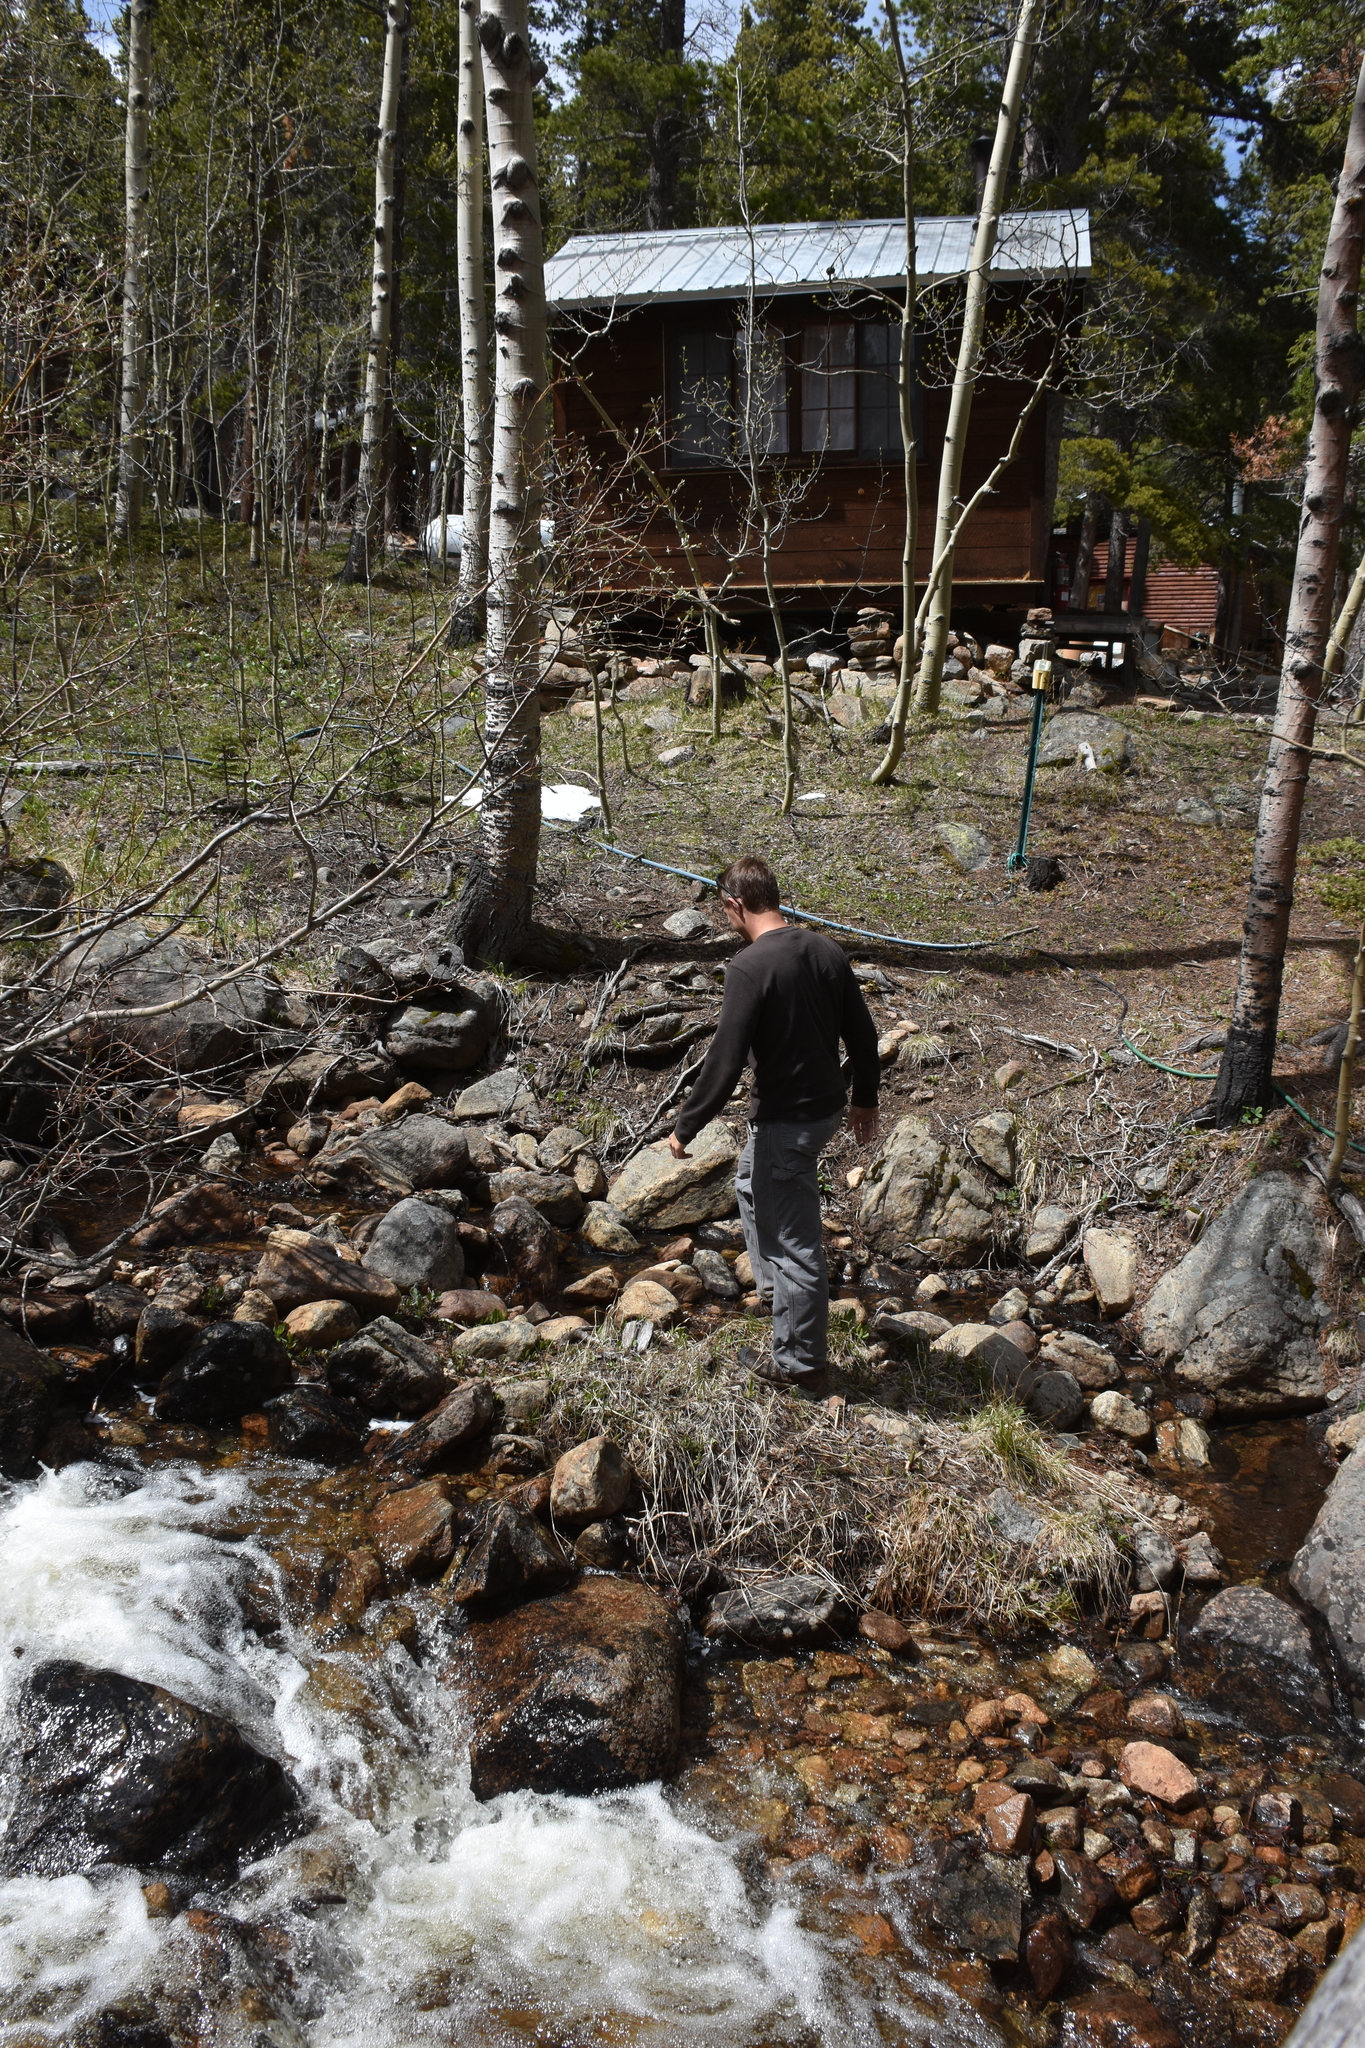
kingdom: Plantae
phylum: Tracheophyta
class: Magnoliopsida
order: Malpighiales
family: Salicaceae
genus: Populus
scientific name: Populus tremuloides
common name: Quaking aspen
